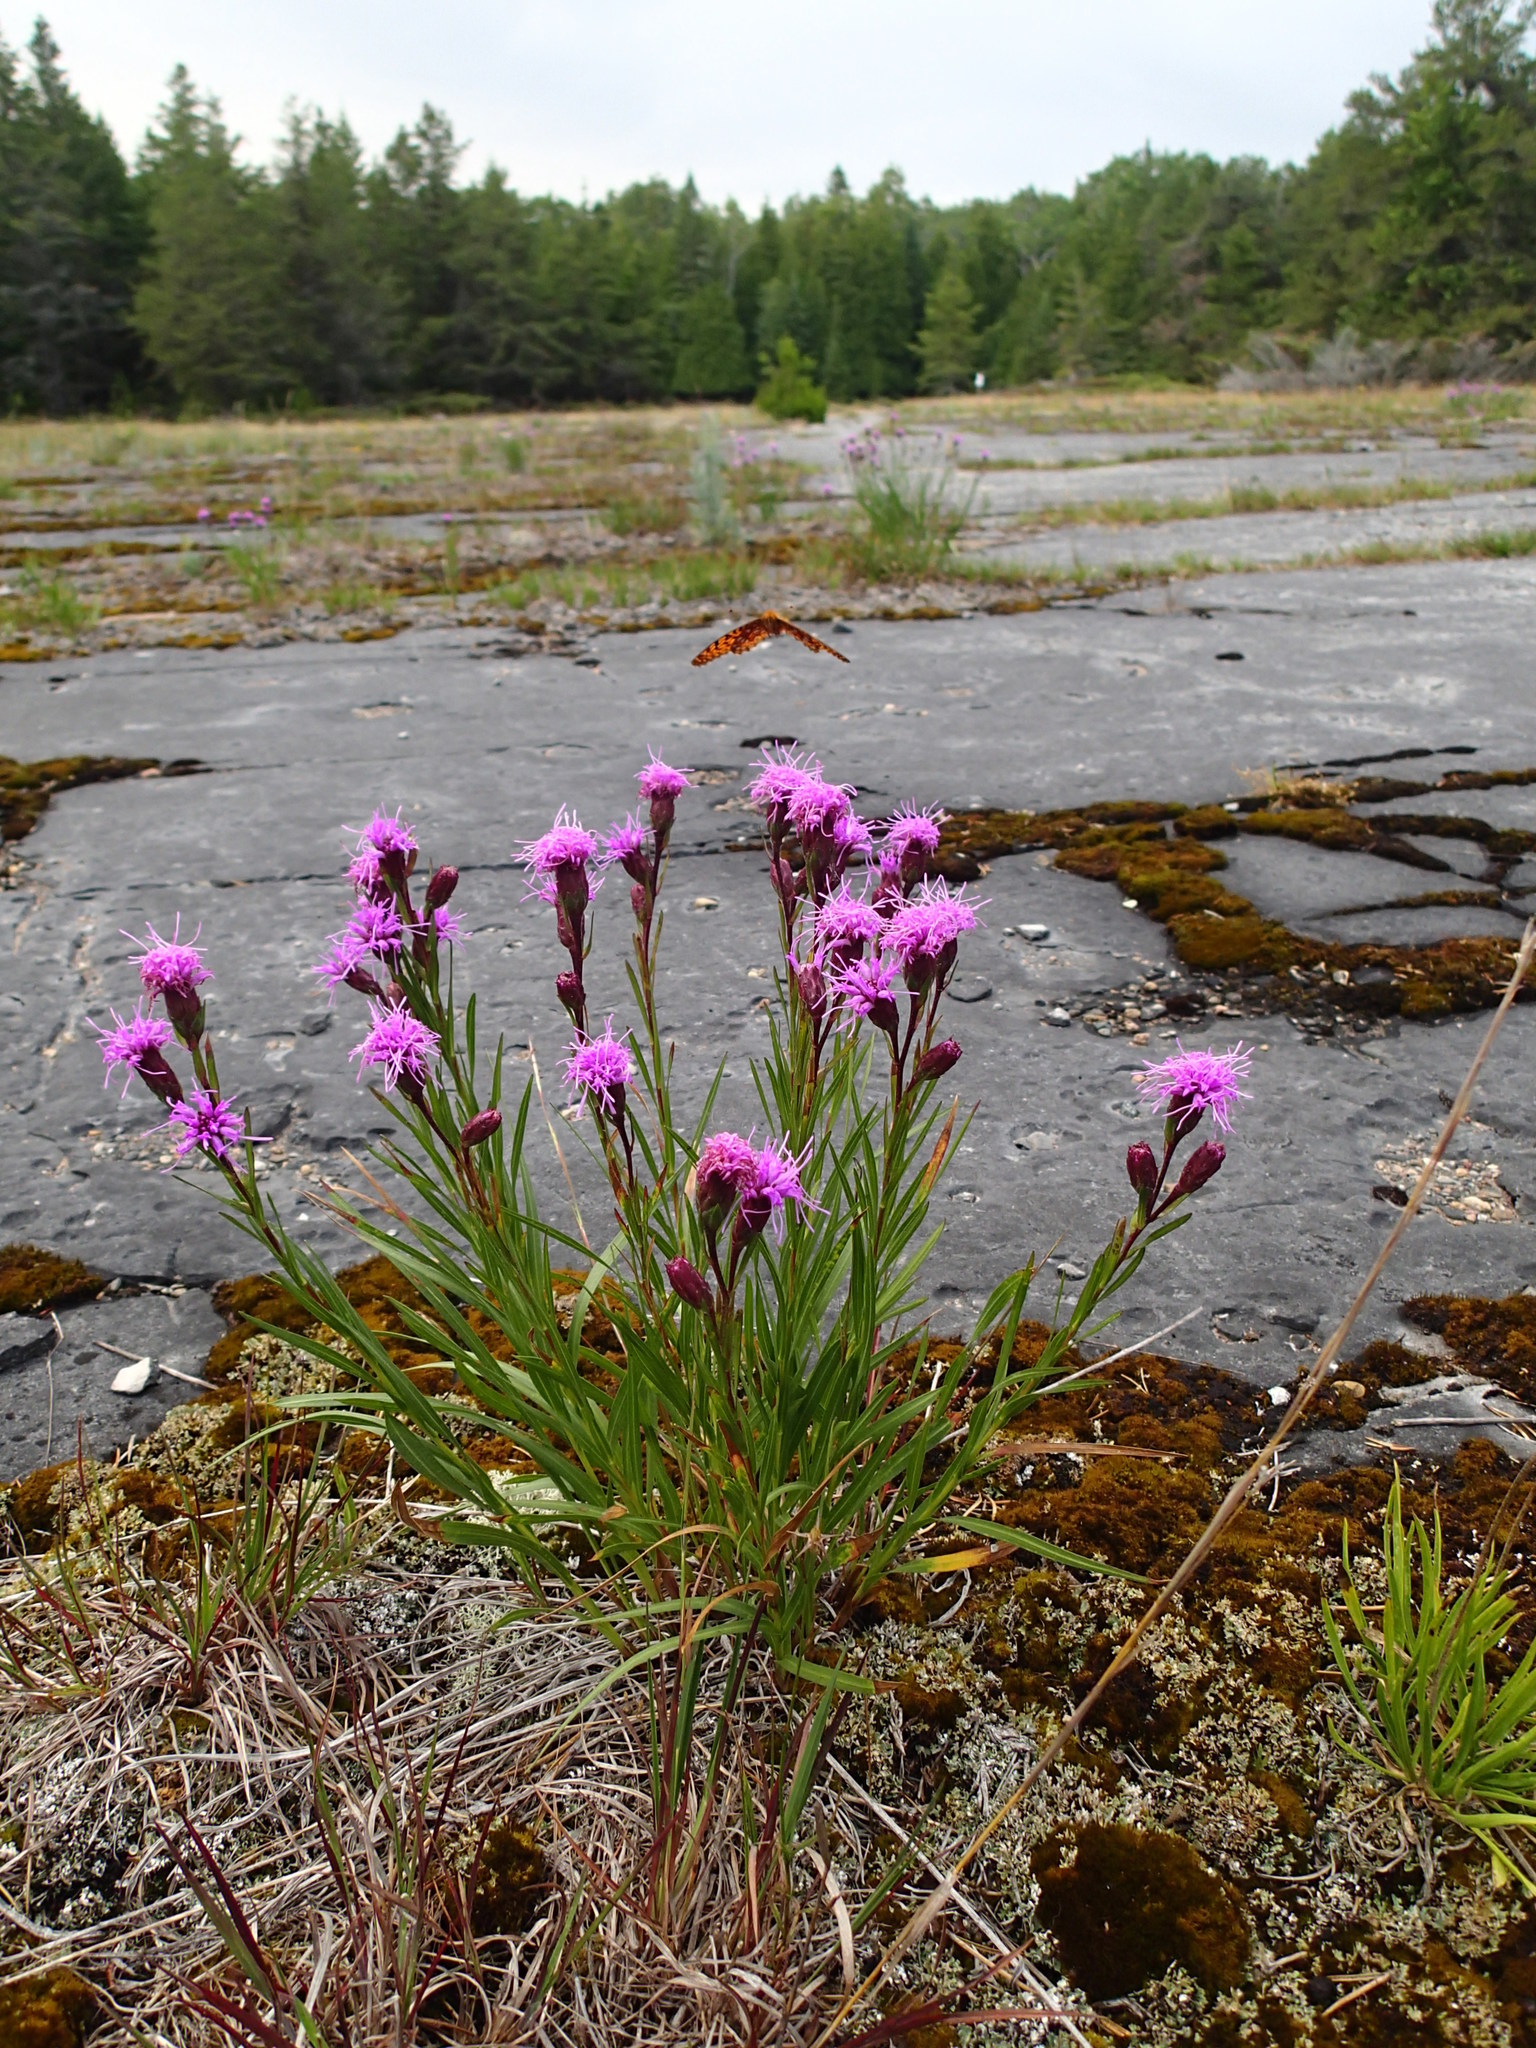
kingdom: Plantae
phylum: Tracheophyta
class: Magnoliopsida
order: Asterales
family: Asteraceae
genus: Liatris
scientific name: Liatris cylindracea
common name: Few-head blazingstar
